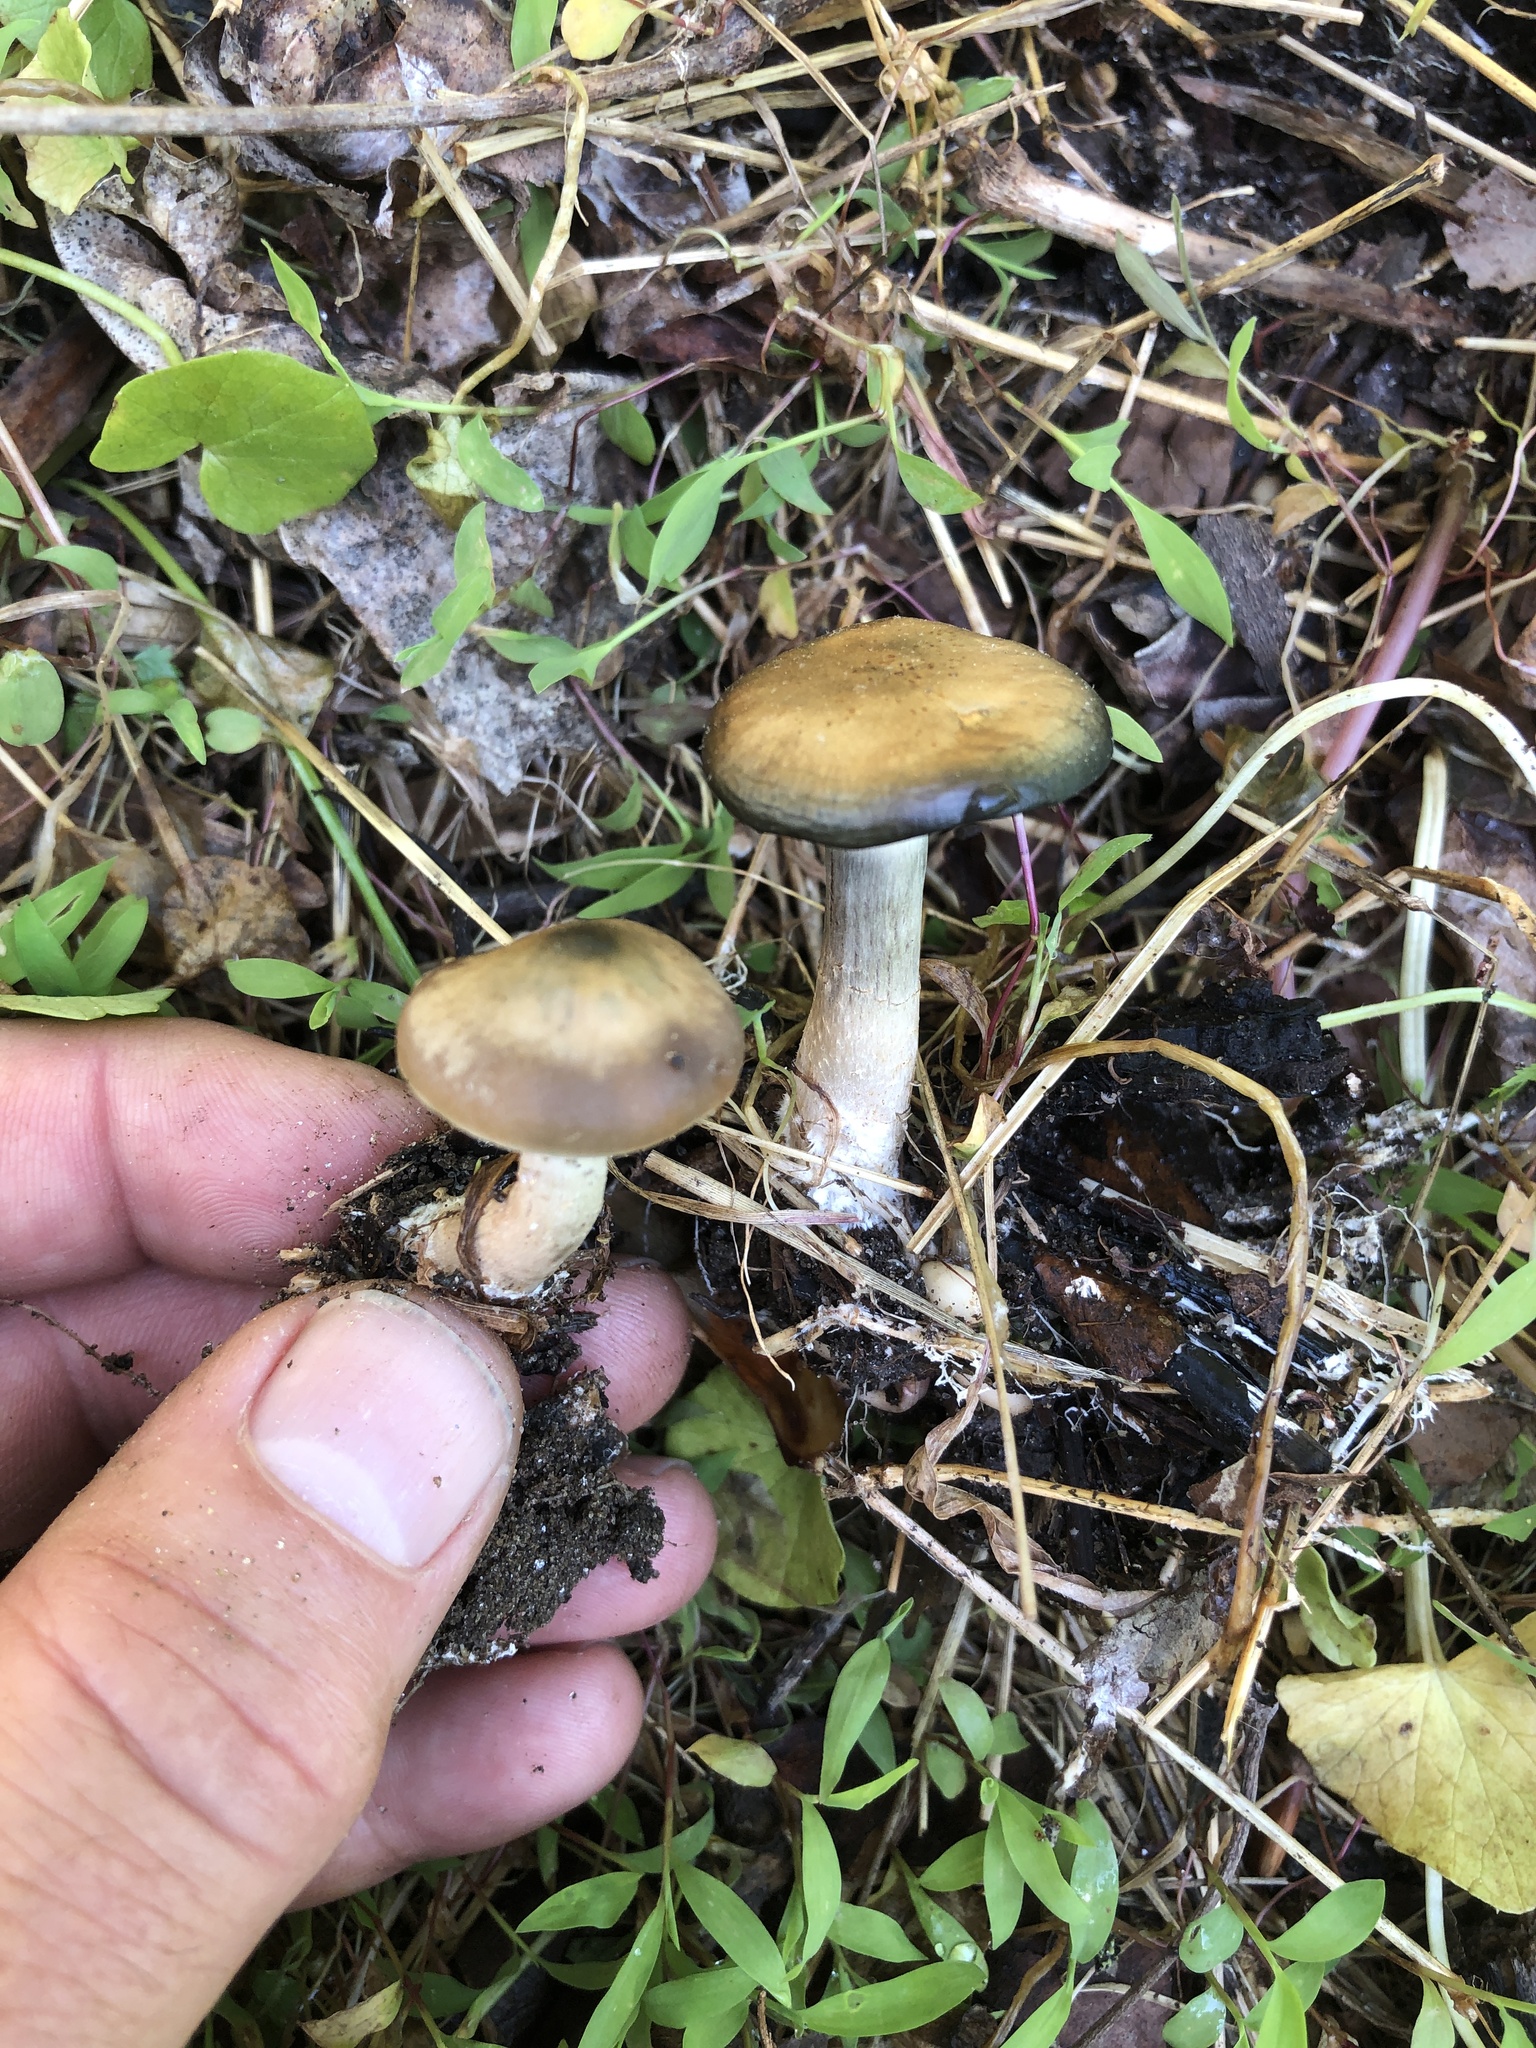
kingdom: Fungi
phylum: Basidiomycota
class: Agaricomycetes
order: Agaricales
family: Hymenogastraceae
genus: Psilocybe
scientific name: Psilocybe ovoideocystidiata
